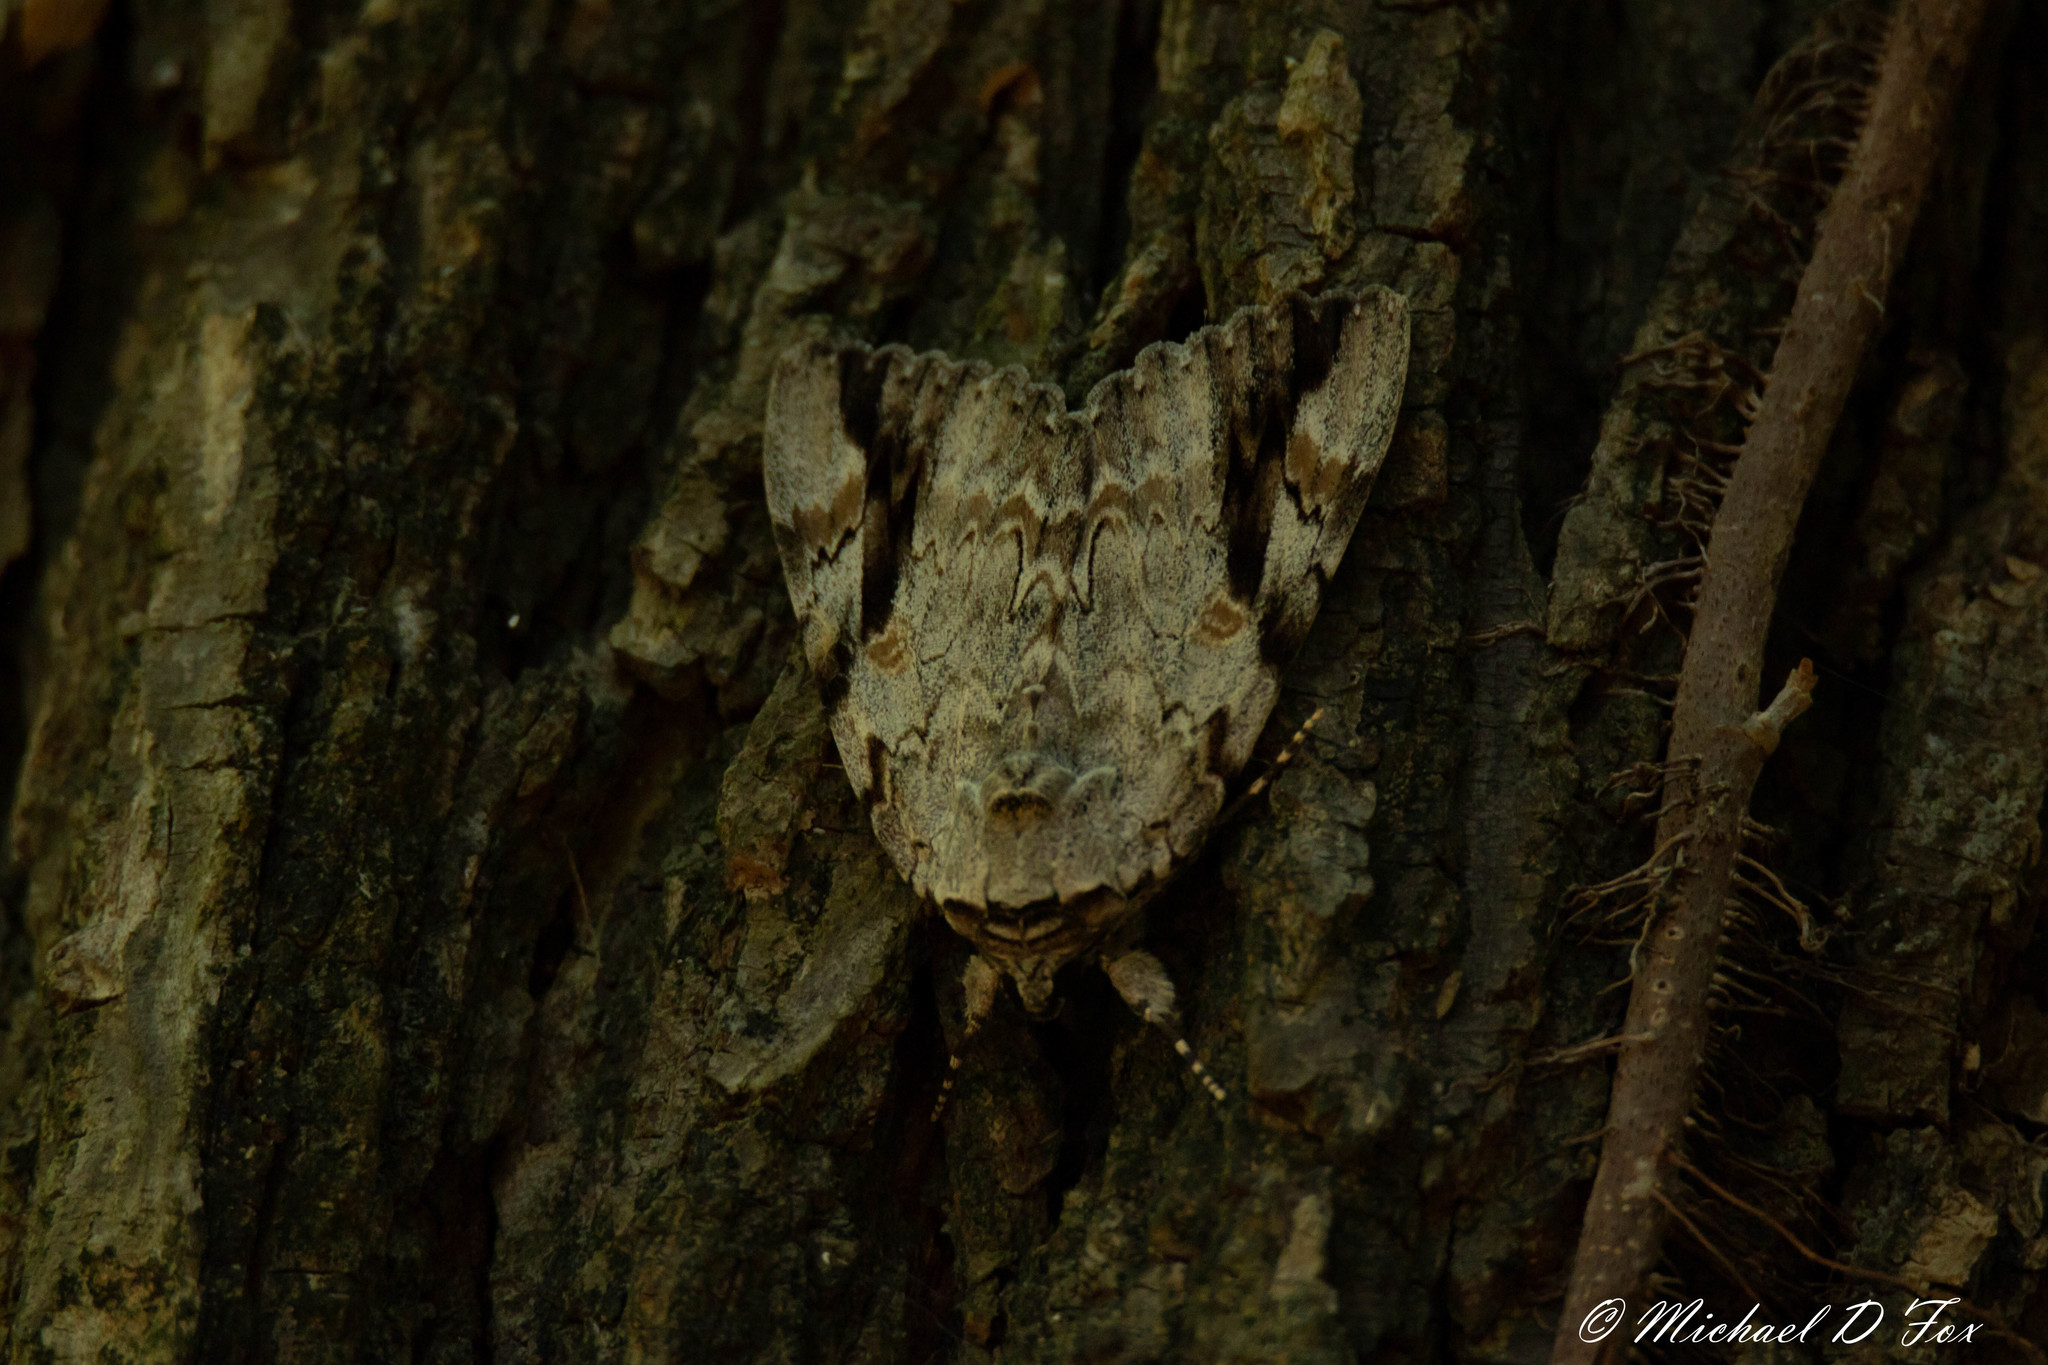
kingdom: Animalia
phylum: Arthropoda
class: Insecta
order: Lepidoptera
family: Erebidae
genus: Catocala
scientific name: Catocala maestosa
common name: Sad underwing
